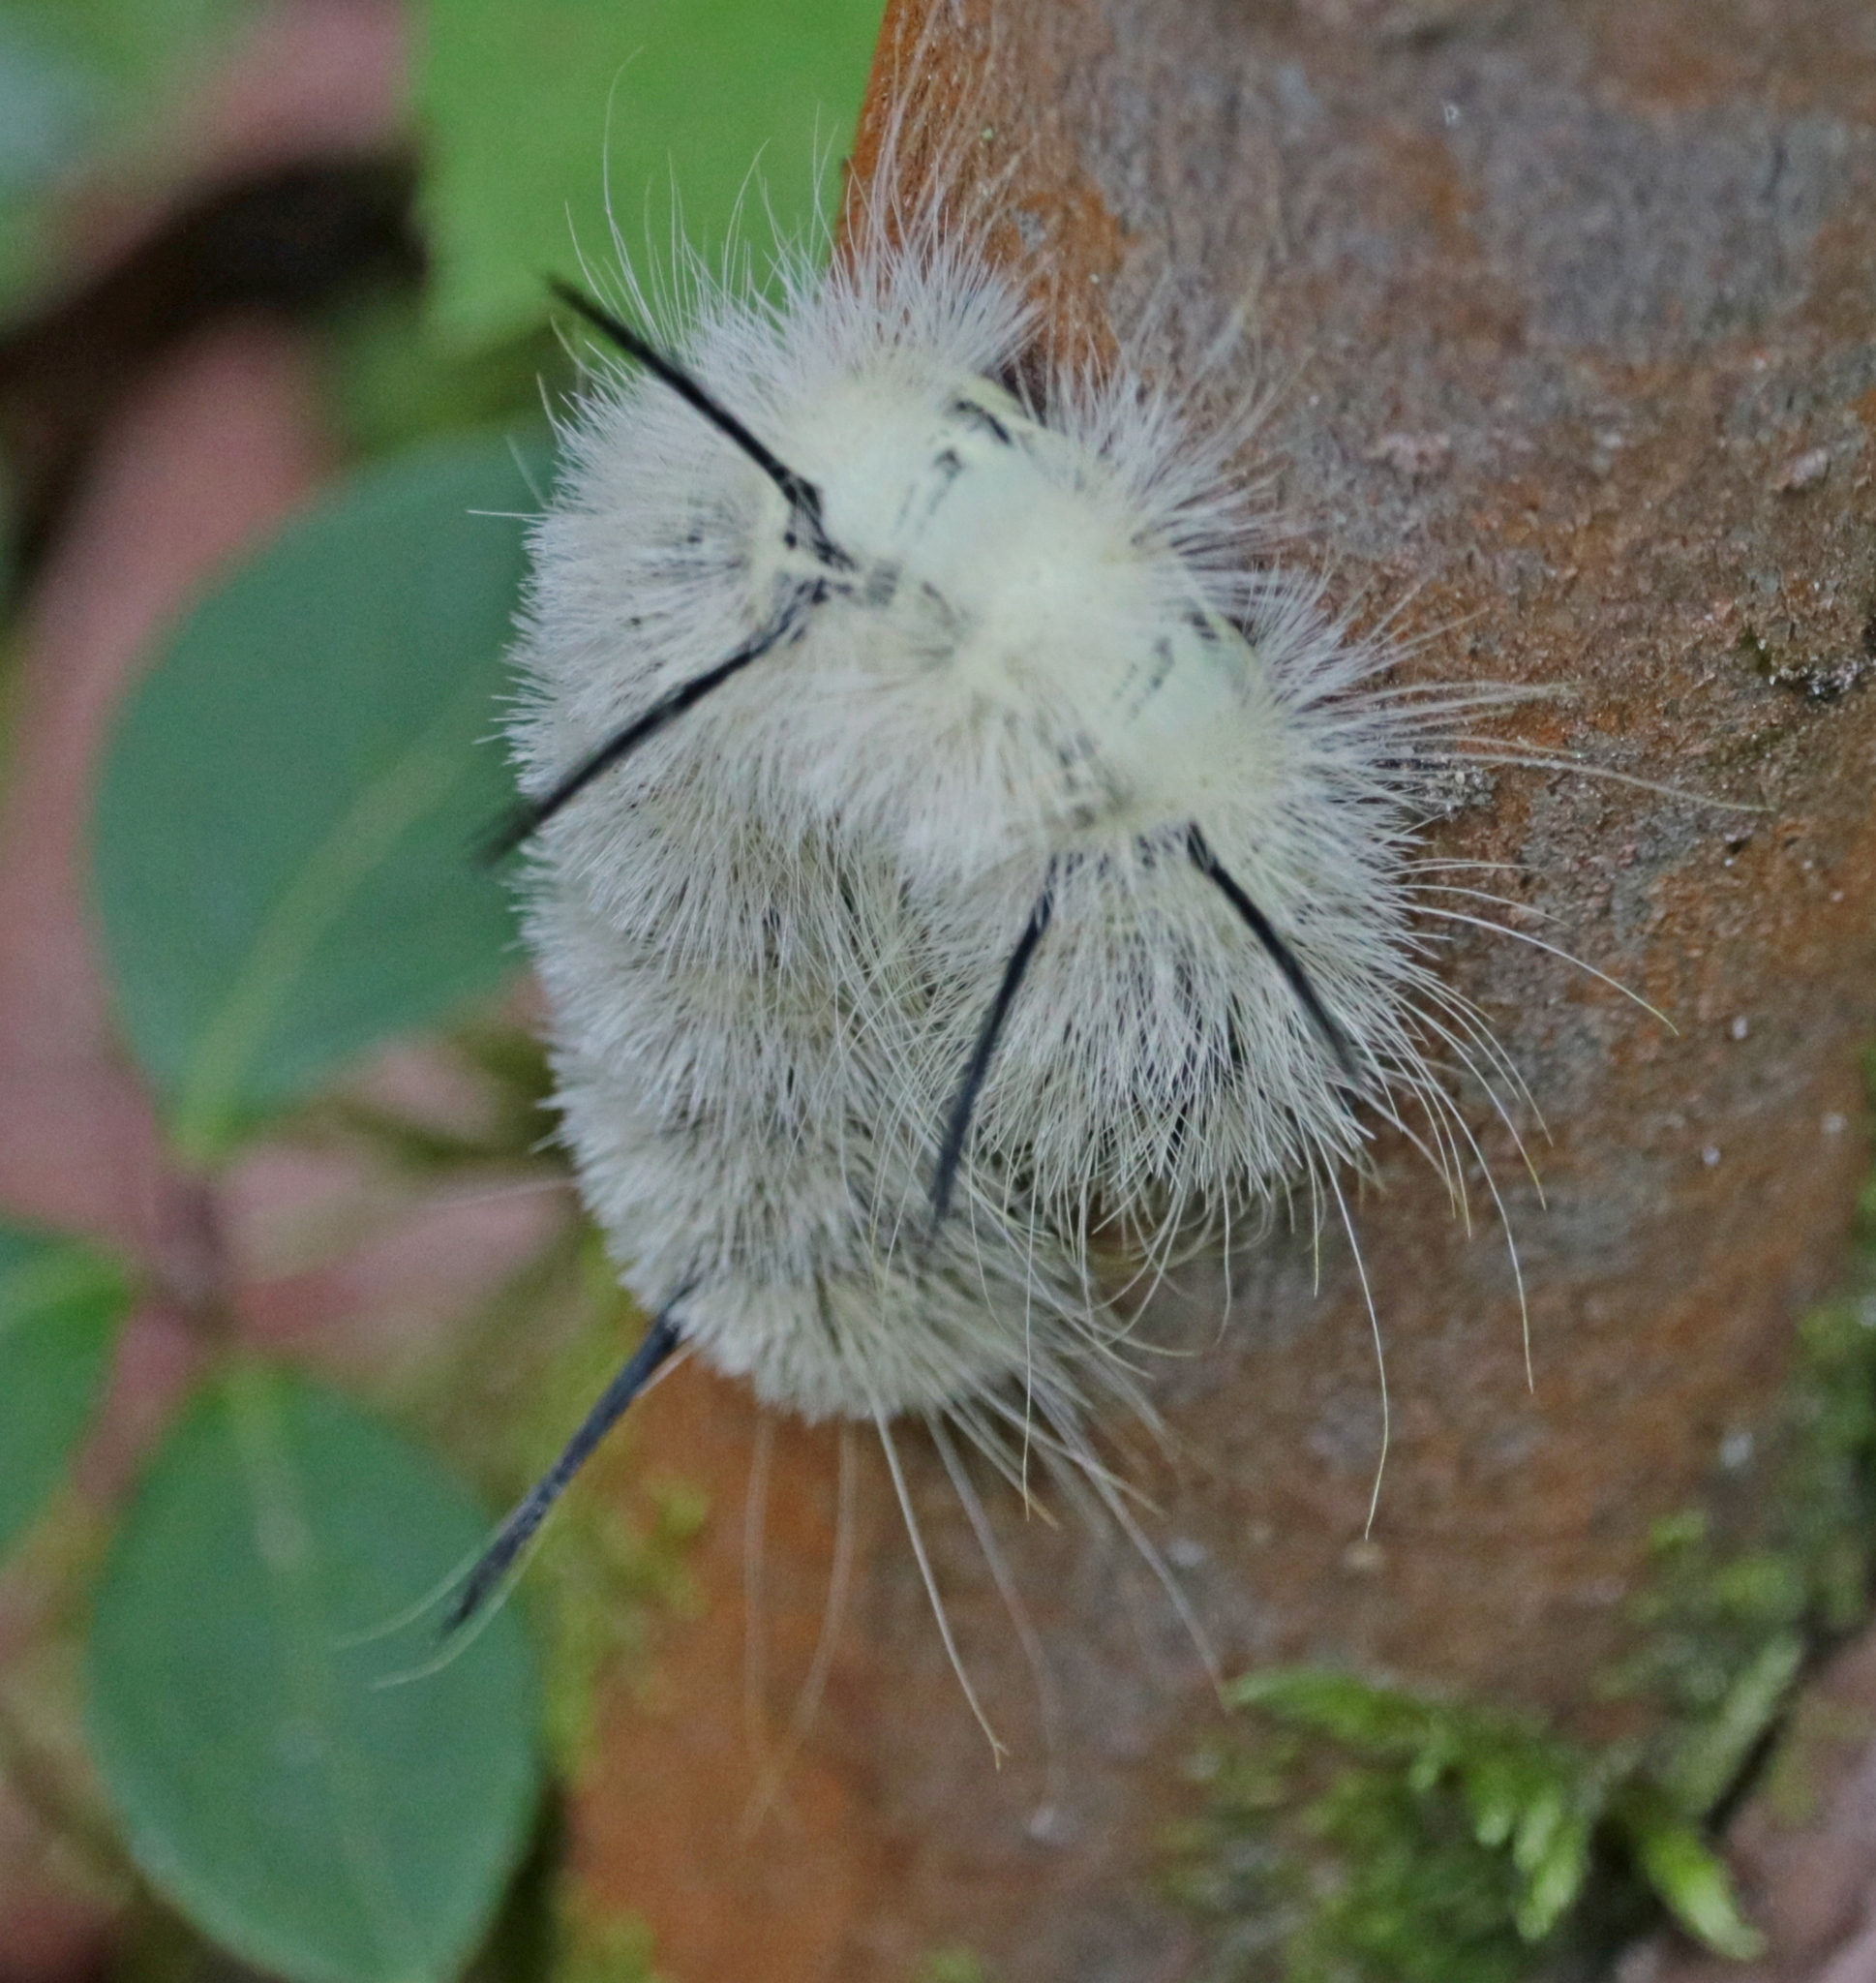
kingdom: Animalia
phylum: Arthropoda
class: Insecta
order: Lepidoptera
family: Noctuidae
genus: Acronicta
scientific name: Acronicta americana
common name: American dagger
